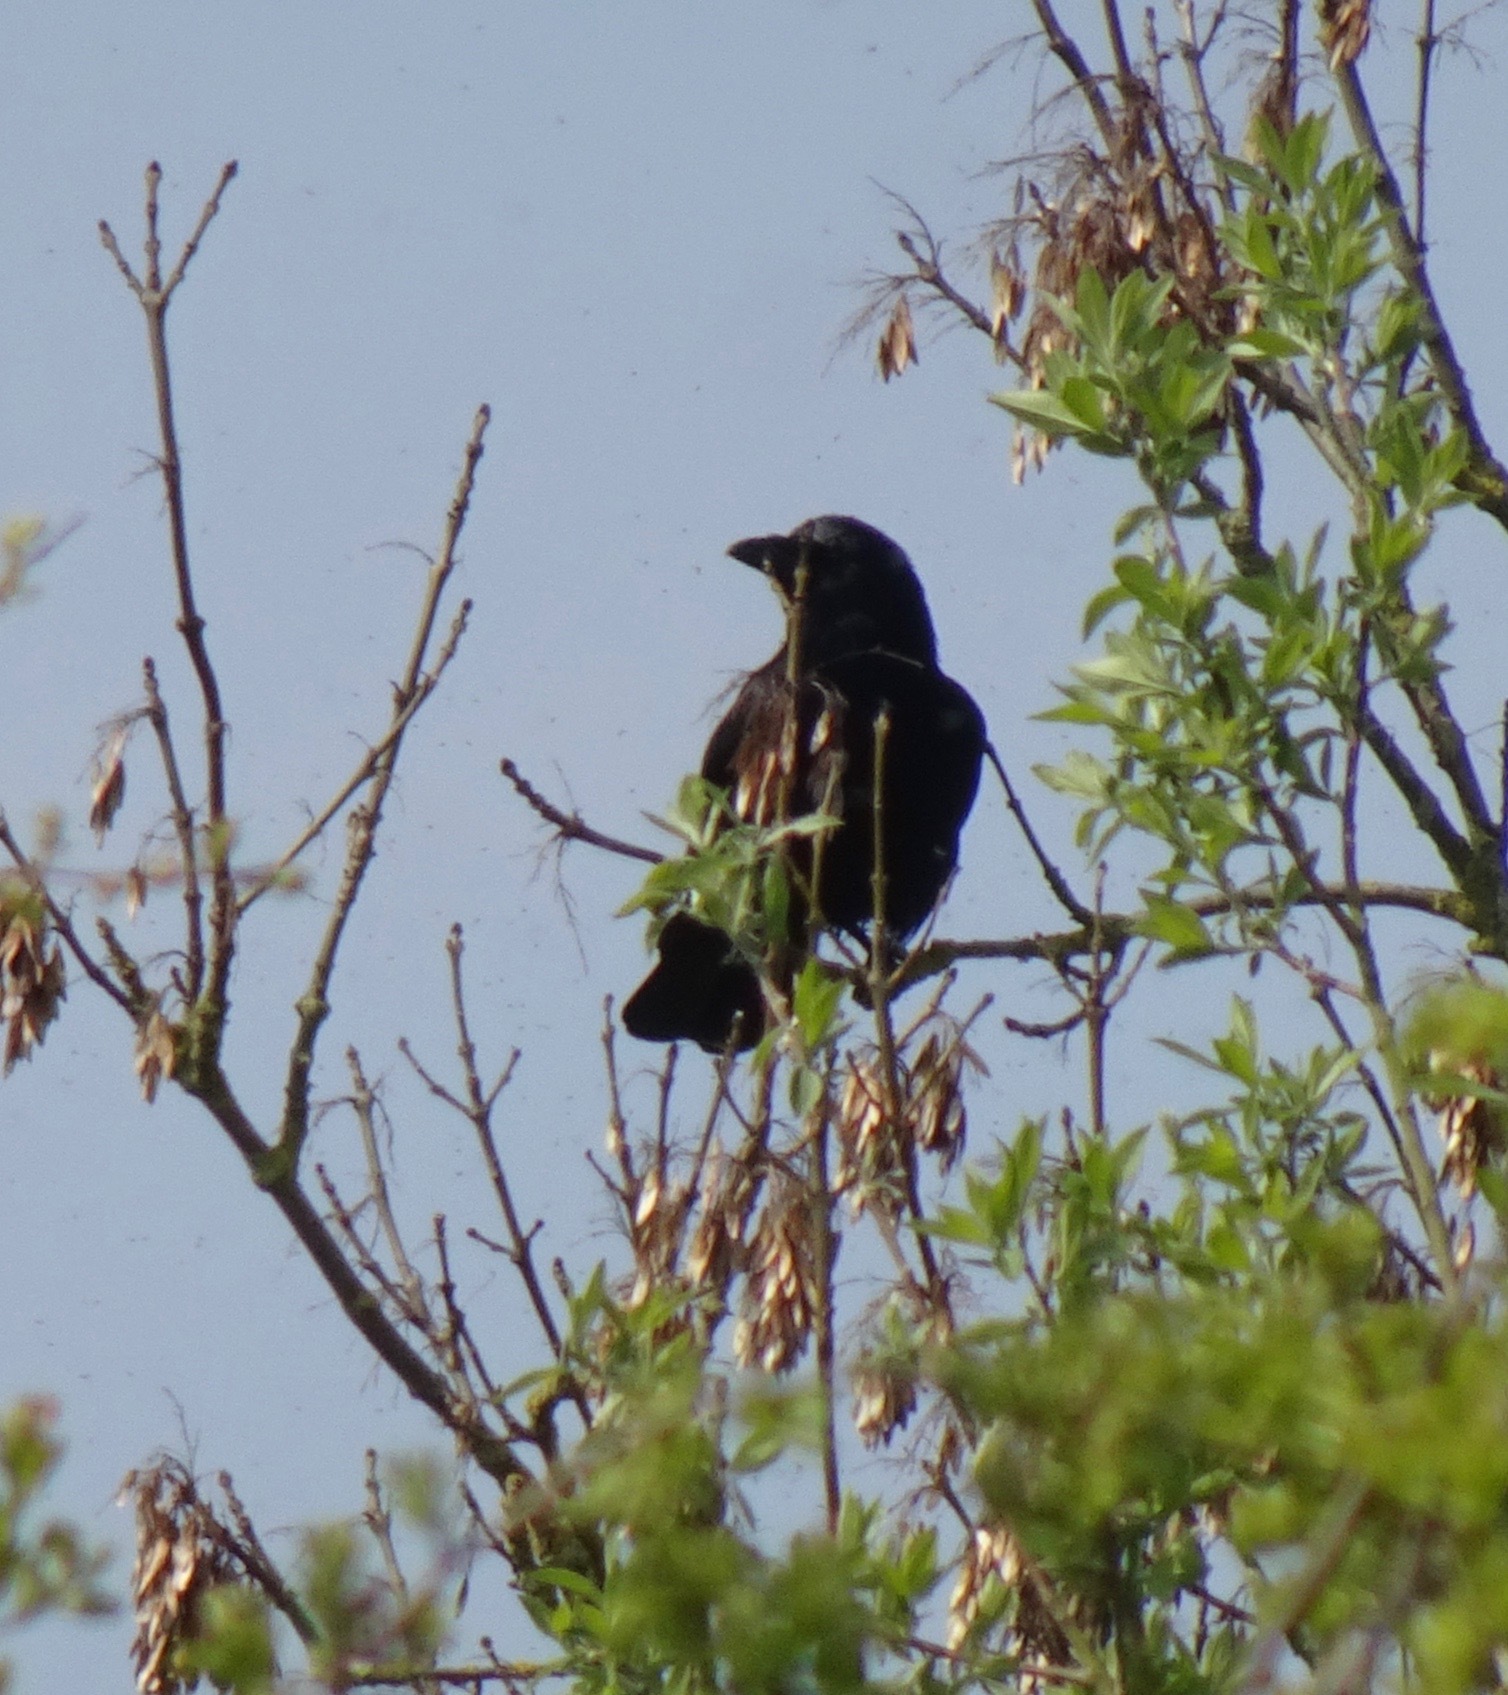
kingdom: Animalia
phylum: Chordata
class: Aves
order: Passeriformes
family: Corvidae
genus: Corvus
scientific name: Corvus corone
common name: Carrion crow
